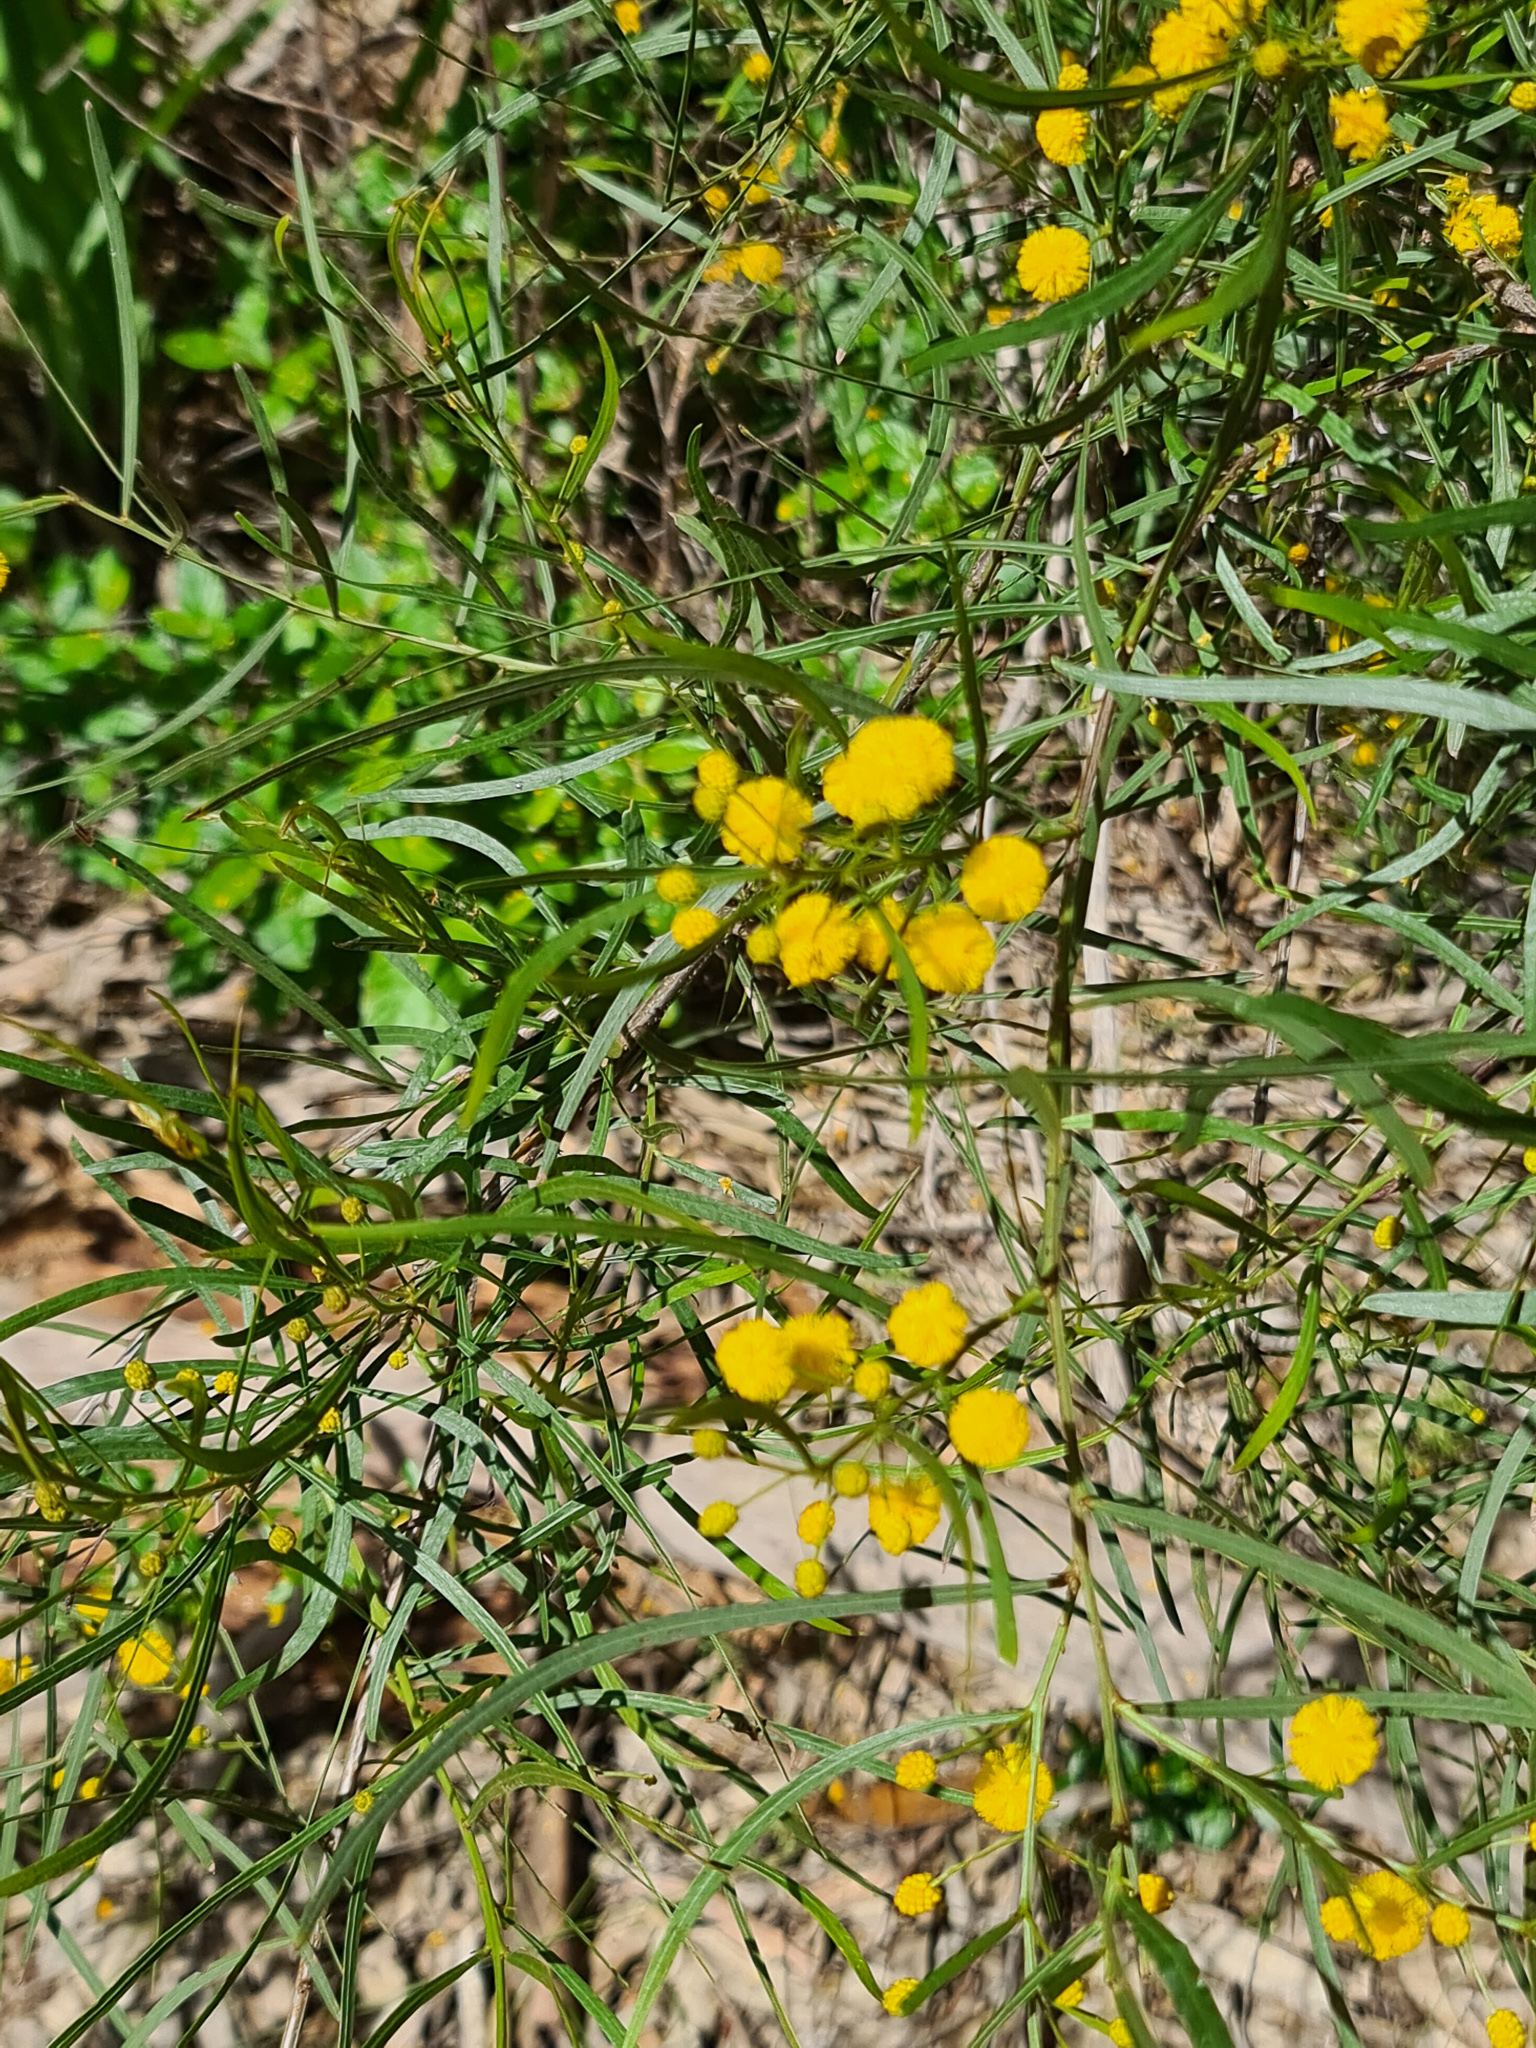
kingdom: Plantae
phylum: Tracheophyta
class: Magnoliopsida
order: Fabales
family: Fabaceae
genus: Acacia
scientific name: Acacia dentifera
